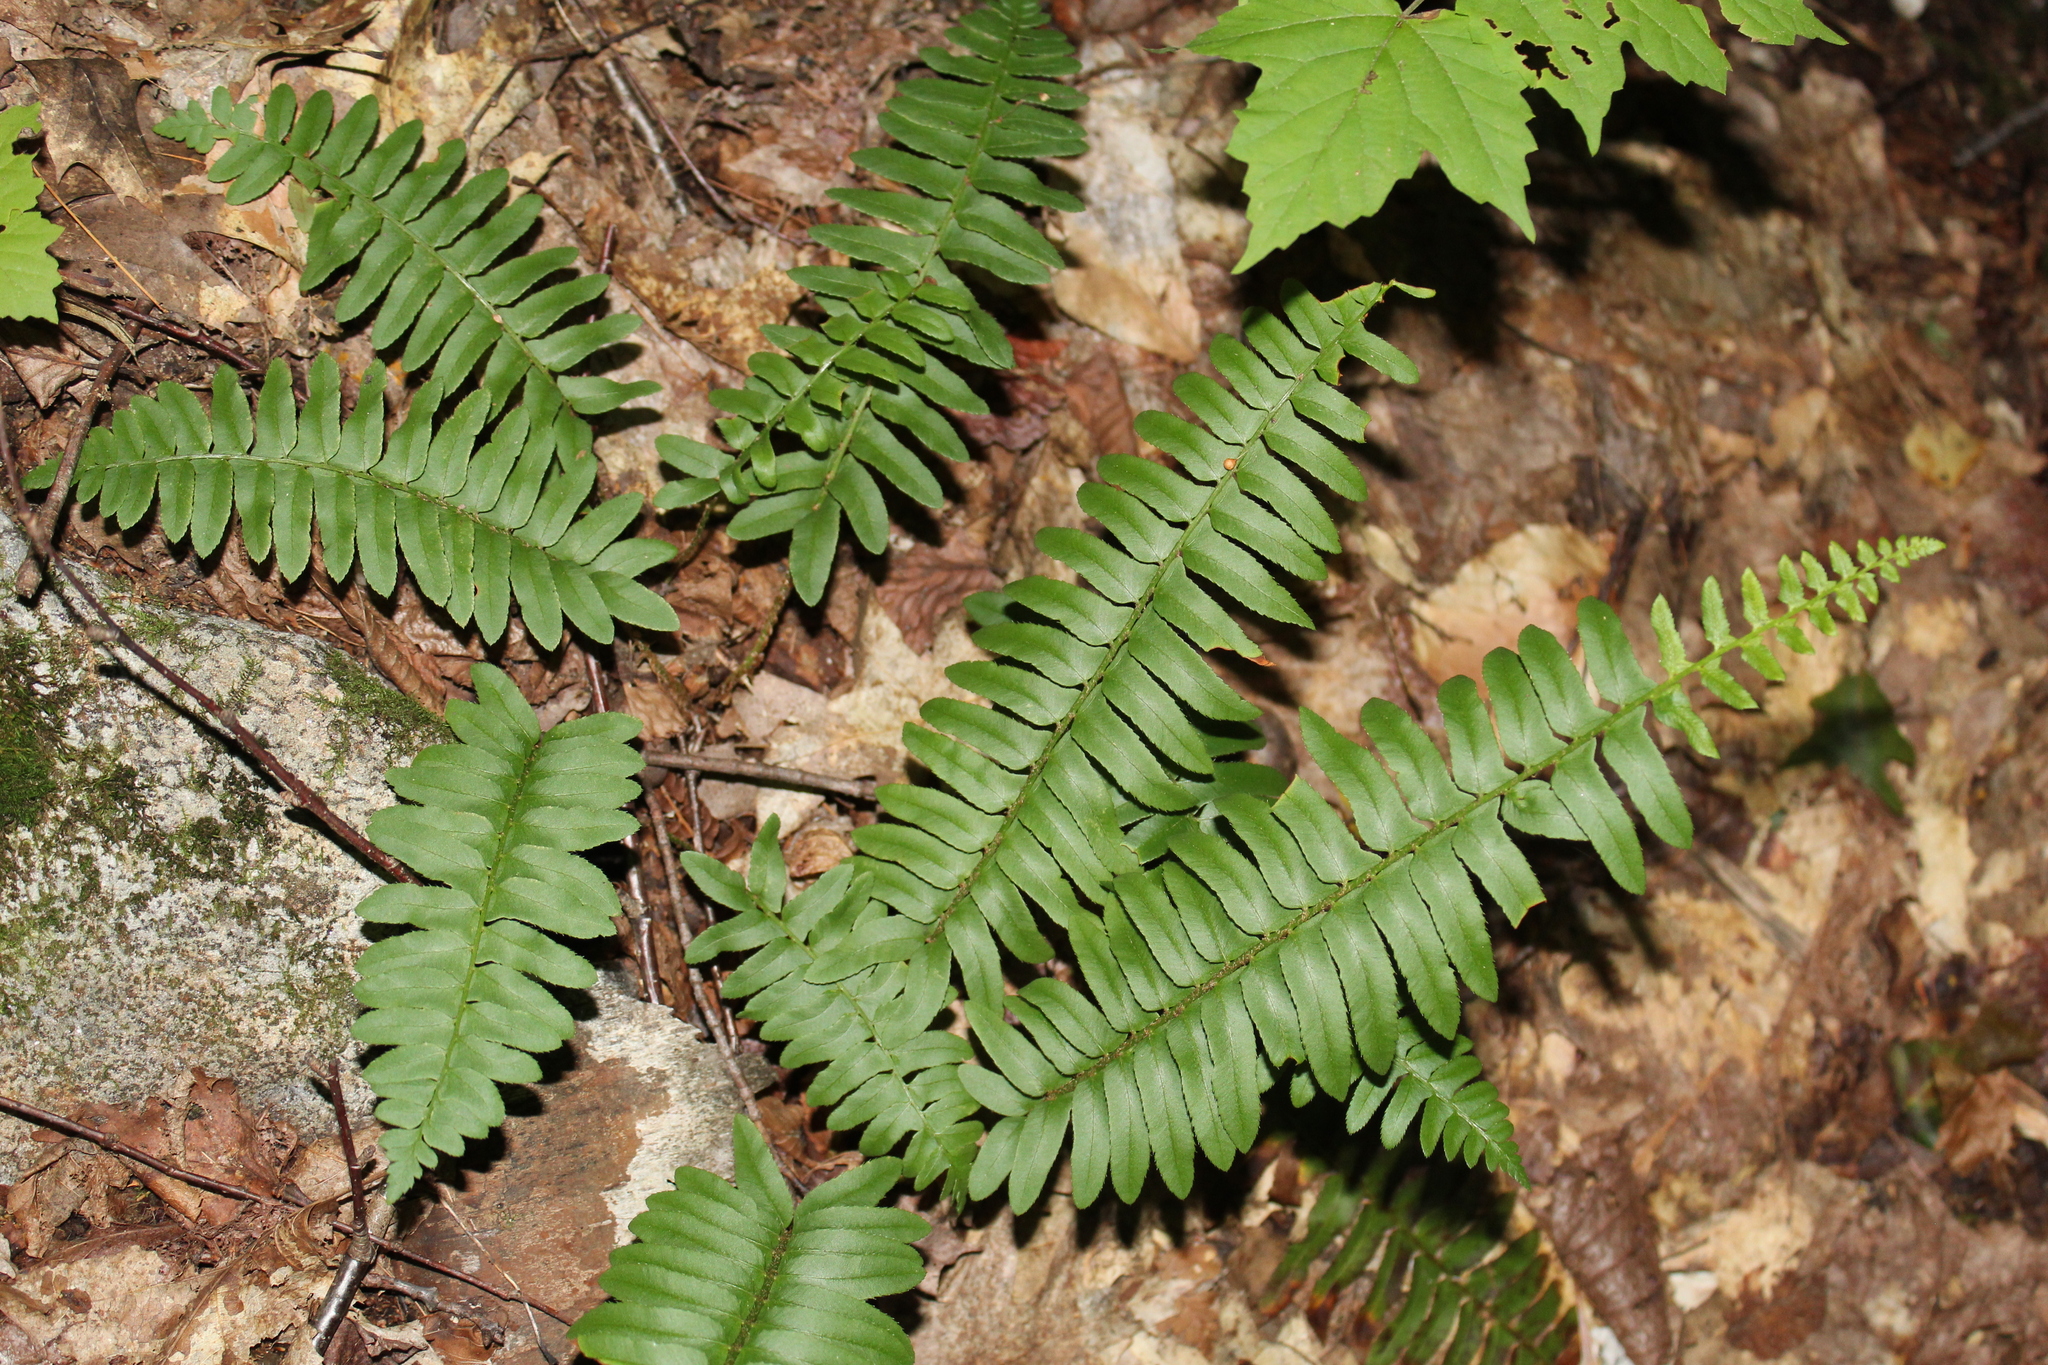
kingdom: Plantae
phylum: Tracheophyta
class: Polypodiopsida
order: Polypodiales
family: Dryopteridaceae
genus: Polystichum
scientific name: Polystichum acrostichoides
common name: Christmas fern
